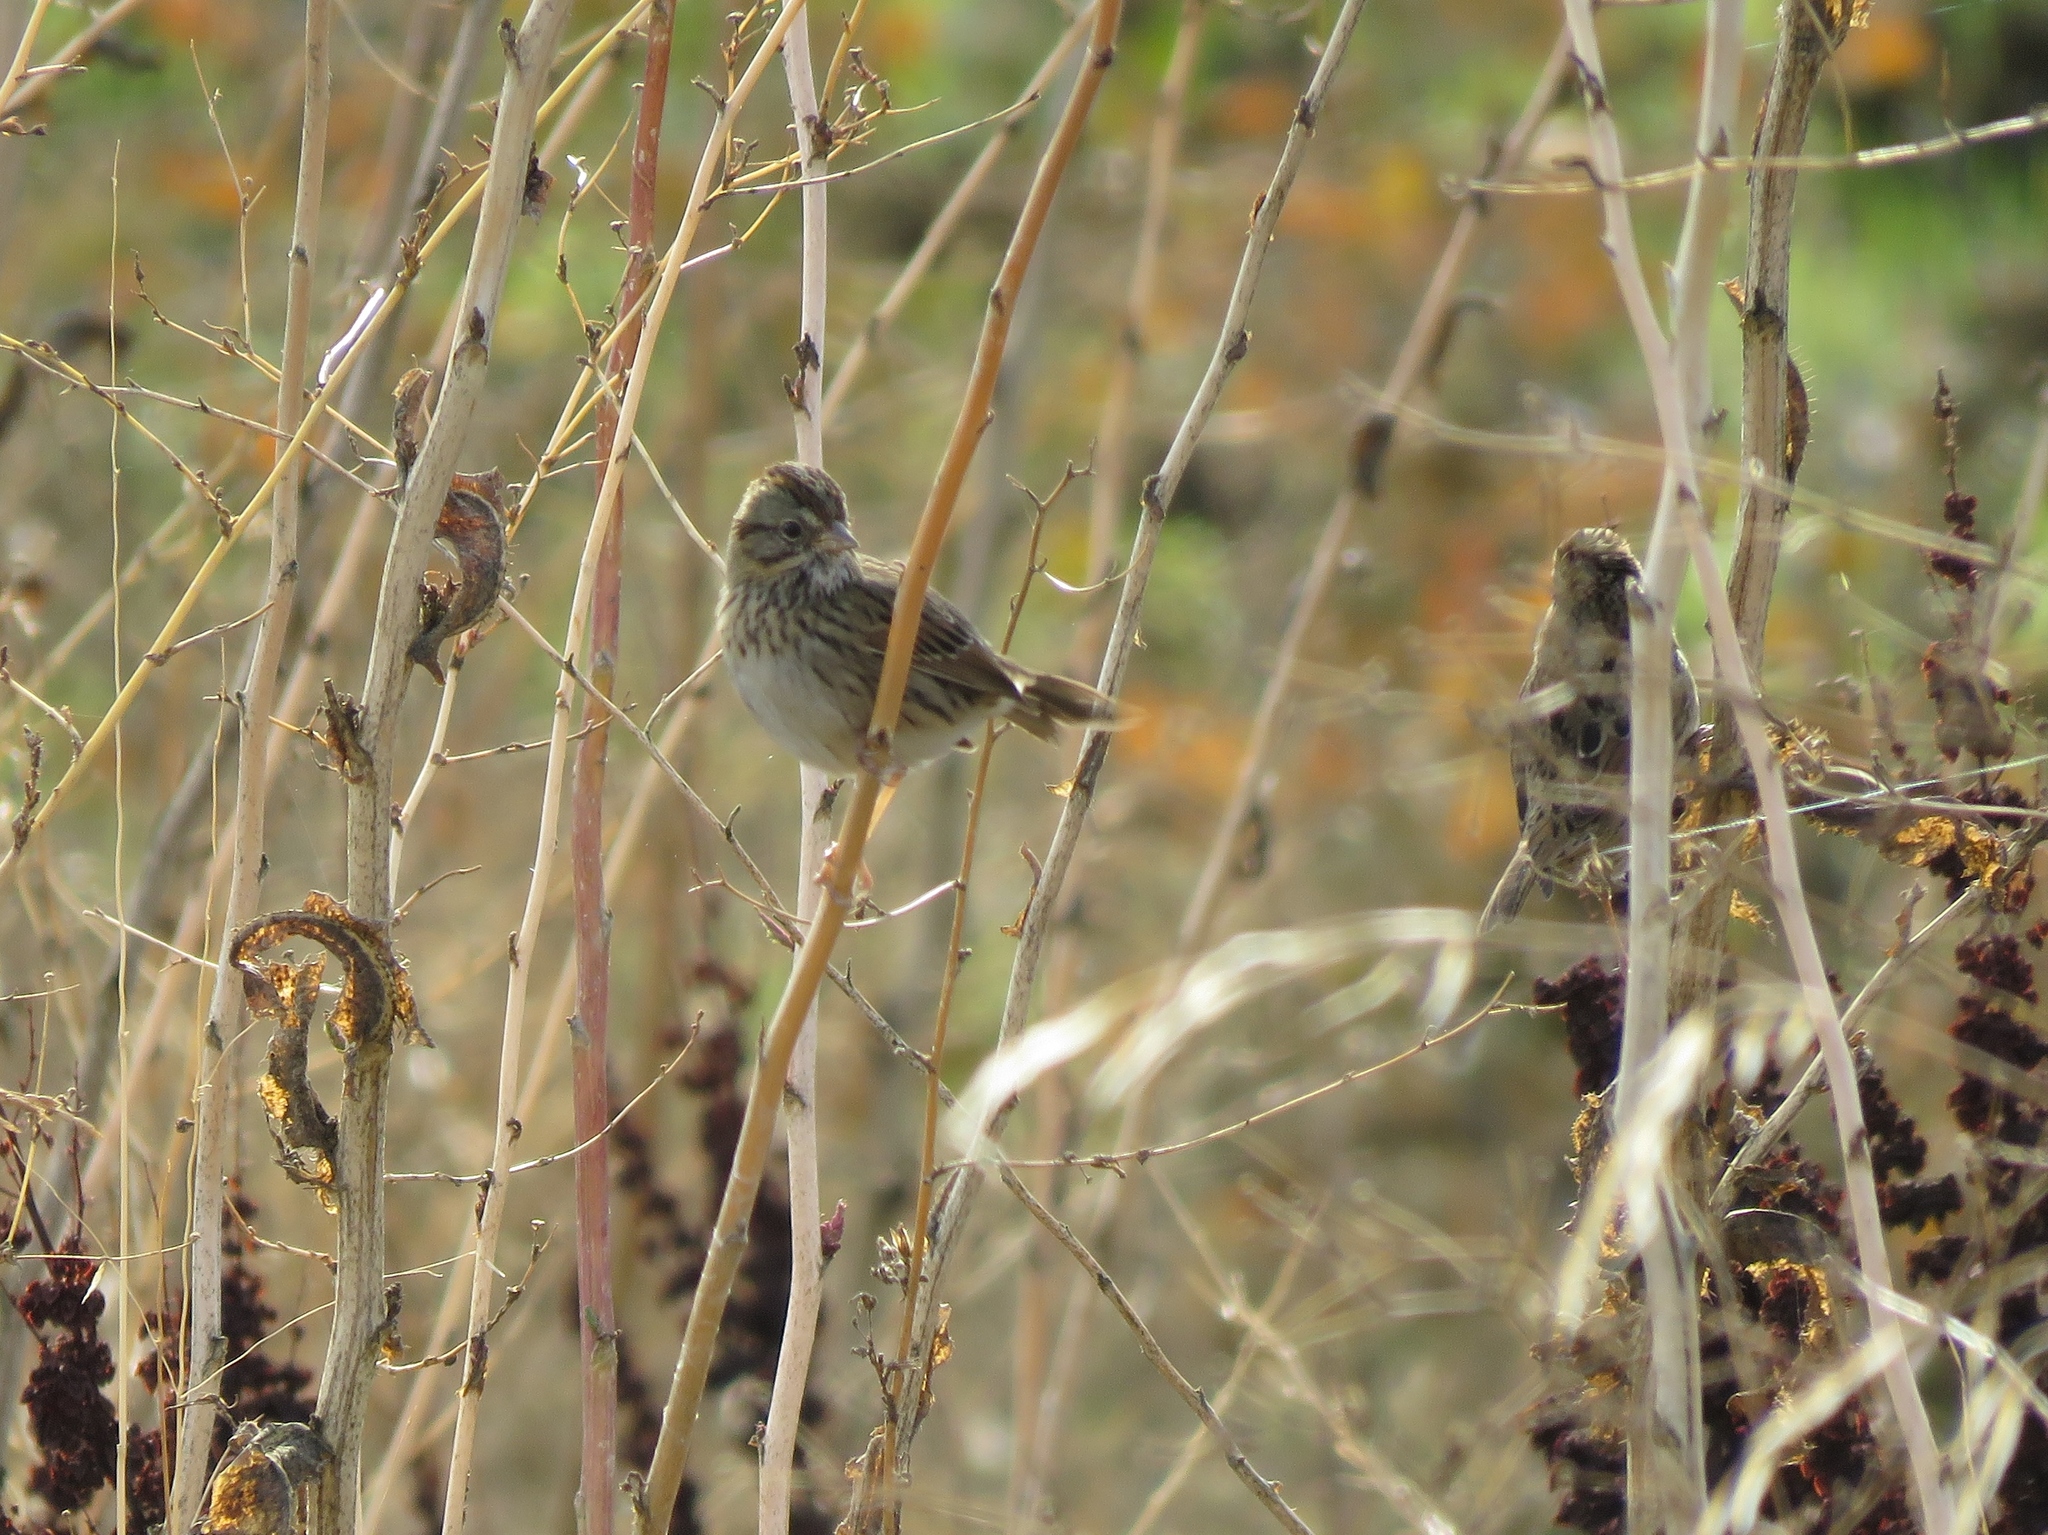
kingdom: Animalia
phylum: Chordata
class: Aves
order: Passeriformes
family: Passerellidae
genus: Melospiza
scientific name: Melospiza lincolnii
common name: Lincoln's sparrow
